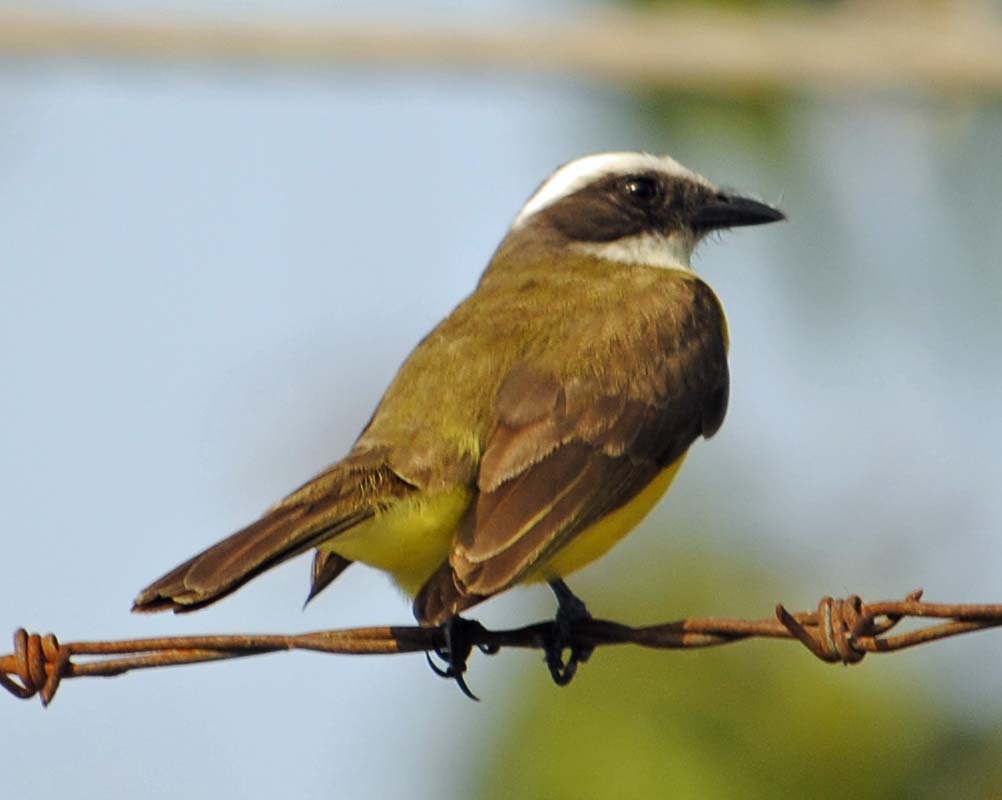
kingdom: Animalia
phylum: Chordata
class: Aves
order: Passeriformes
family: Tyrannidae
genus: Myiozetetes
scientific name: Myiozetetes similis
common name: Social flycatcher
